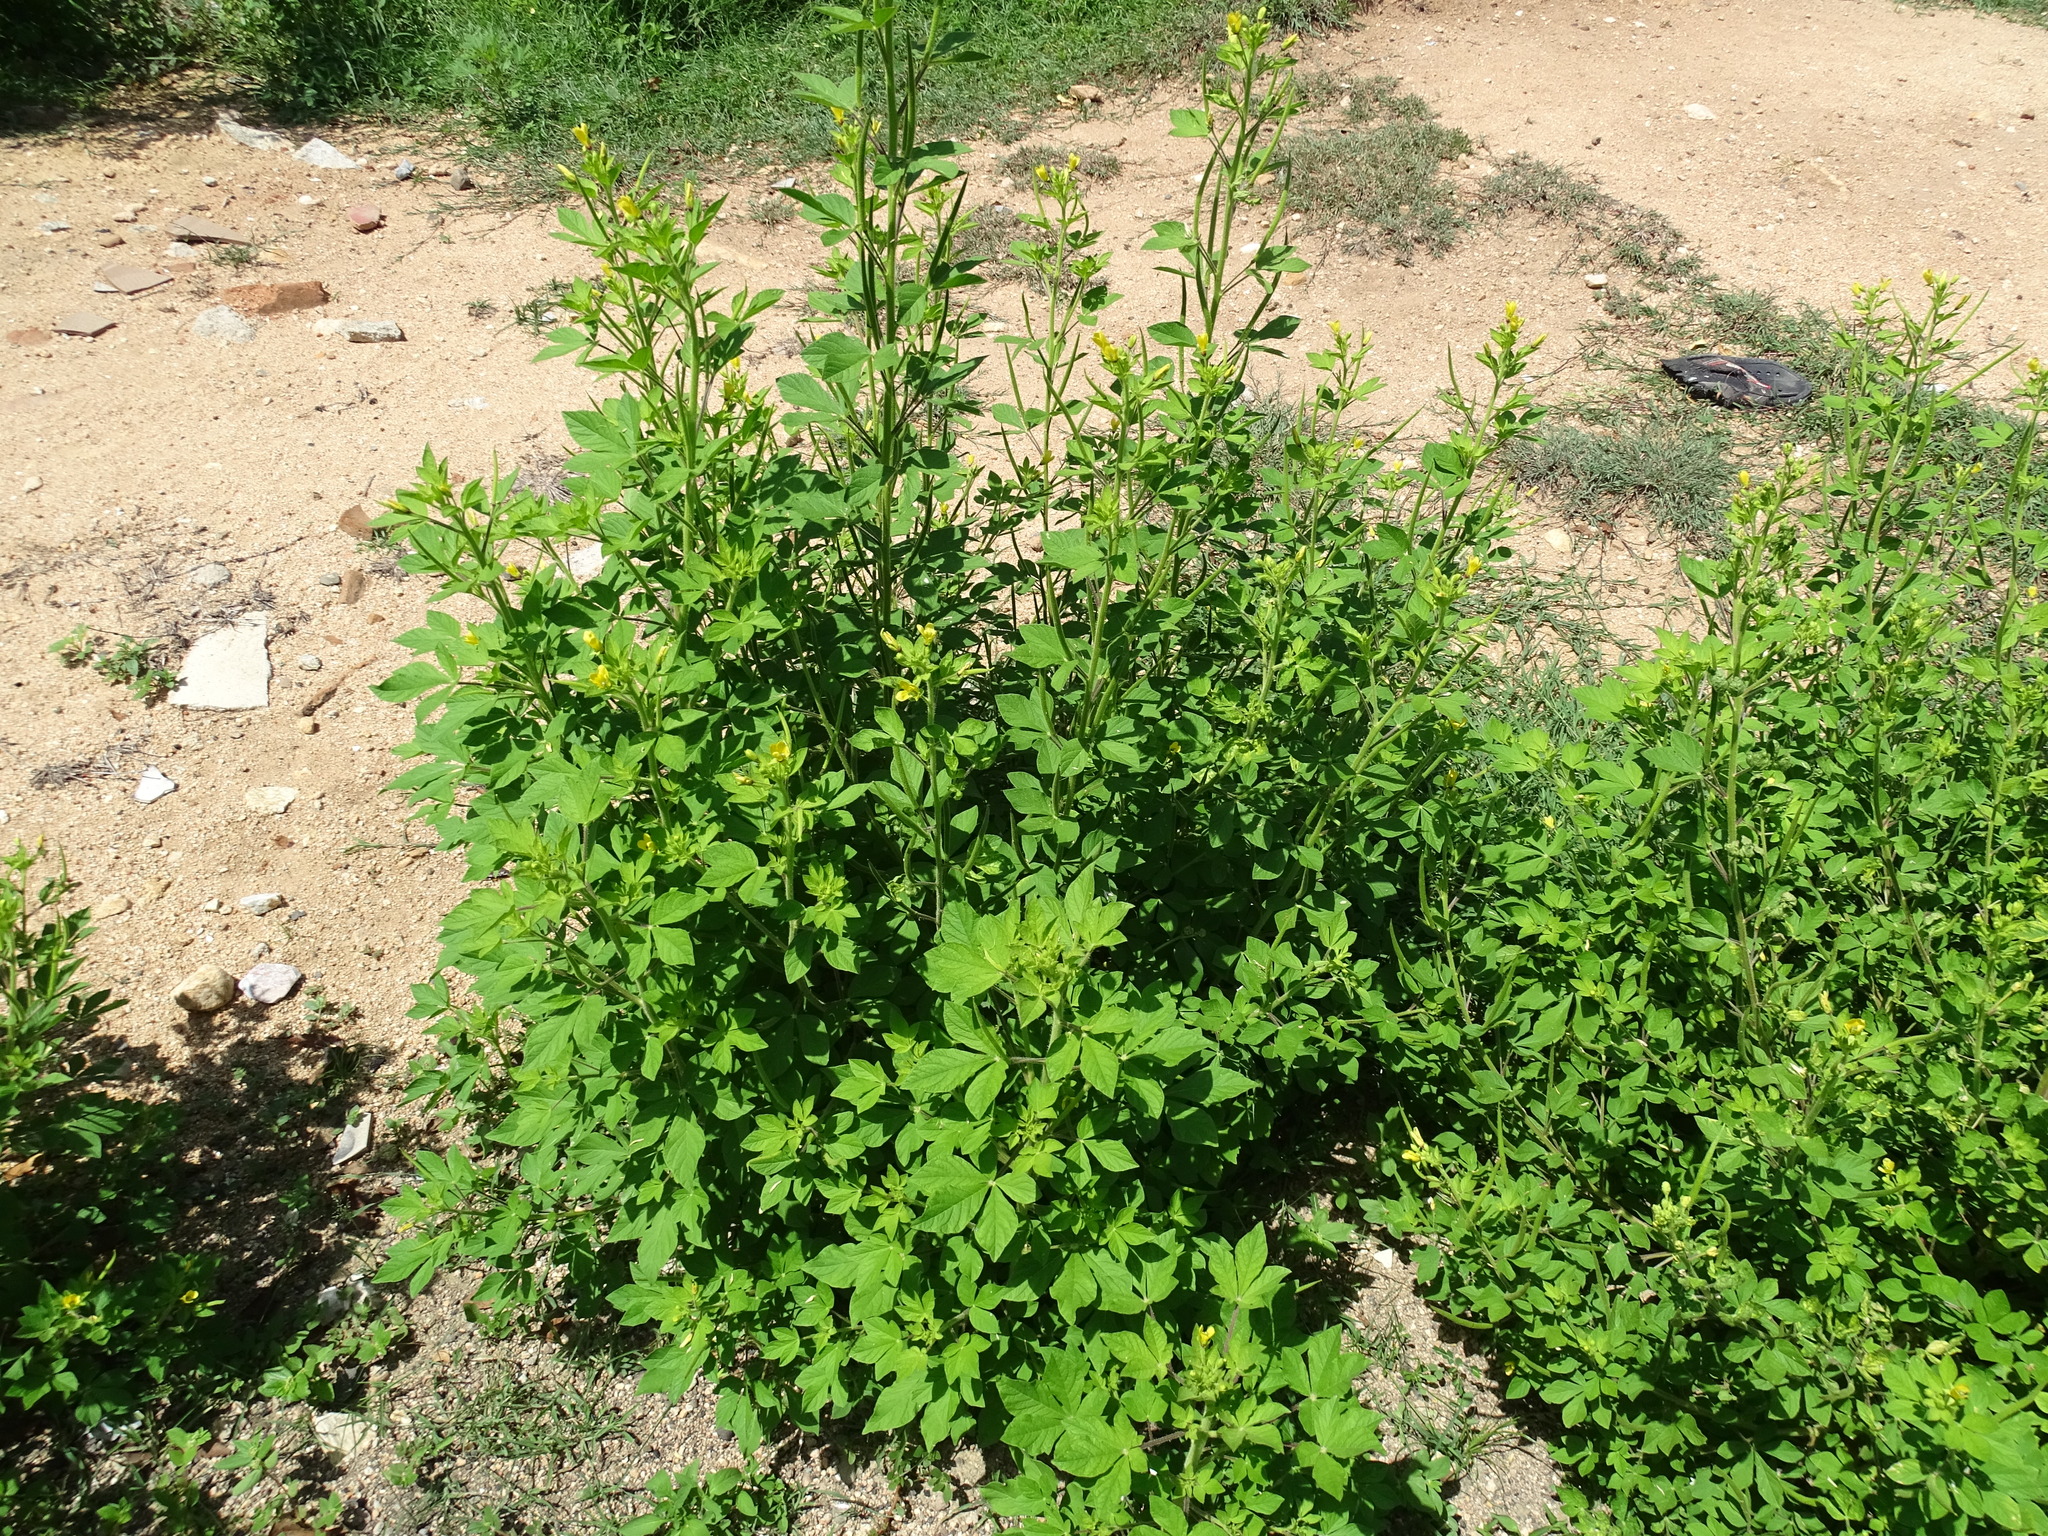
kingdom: Plantae
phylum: Tracheophyta
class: Magnoliopsida
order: Brassicales
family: Cleomaceae
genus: Arivela
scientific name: Arivela viscosa
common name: Asian spiderflower
